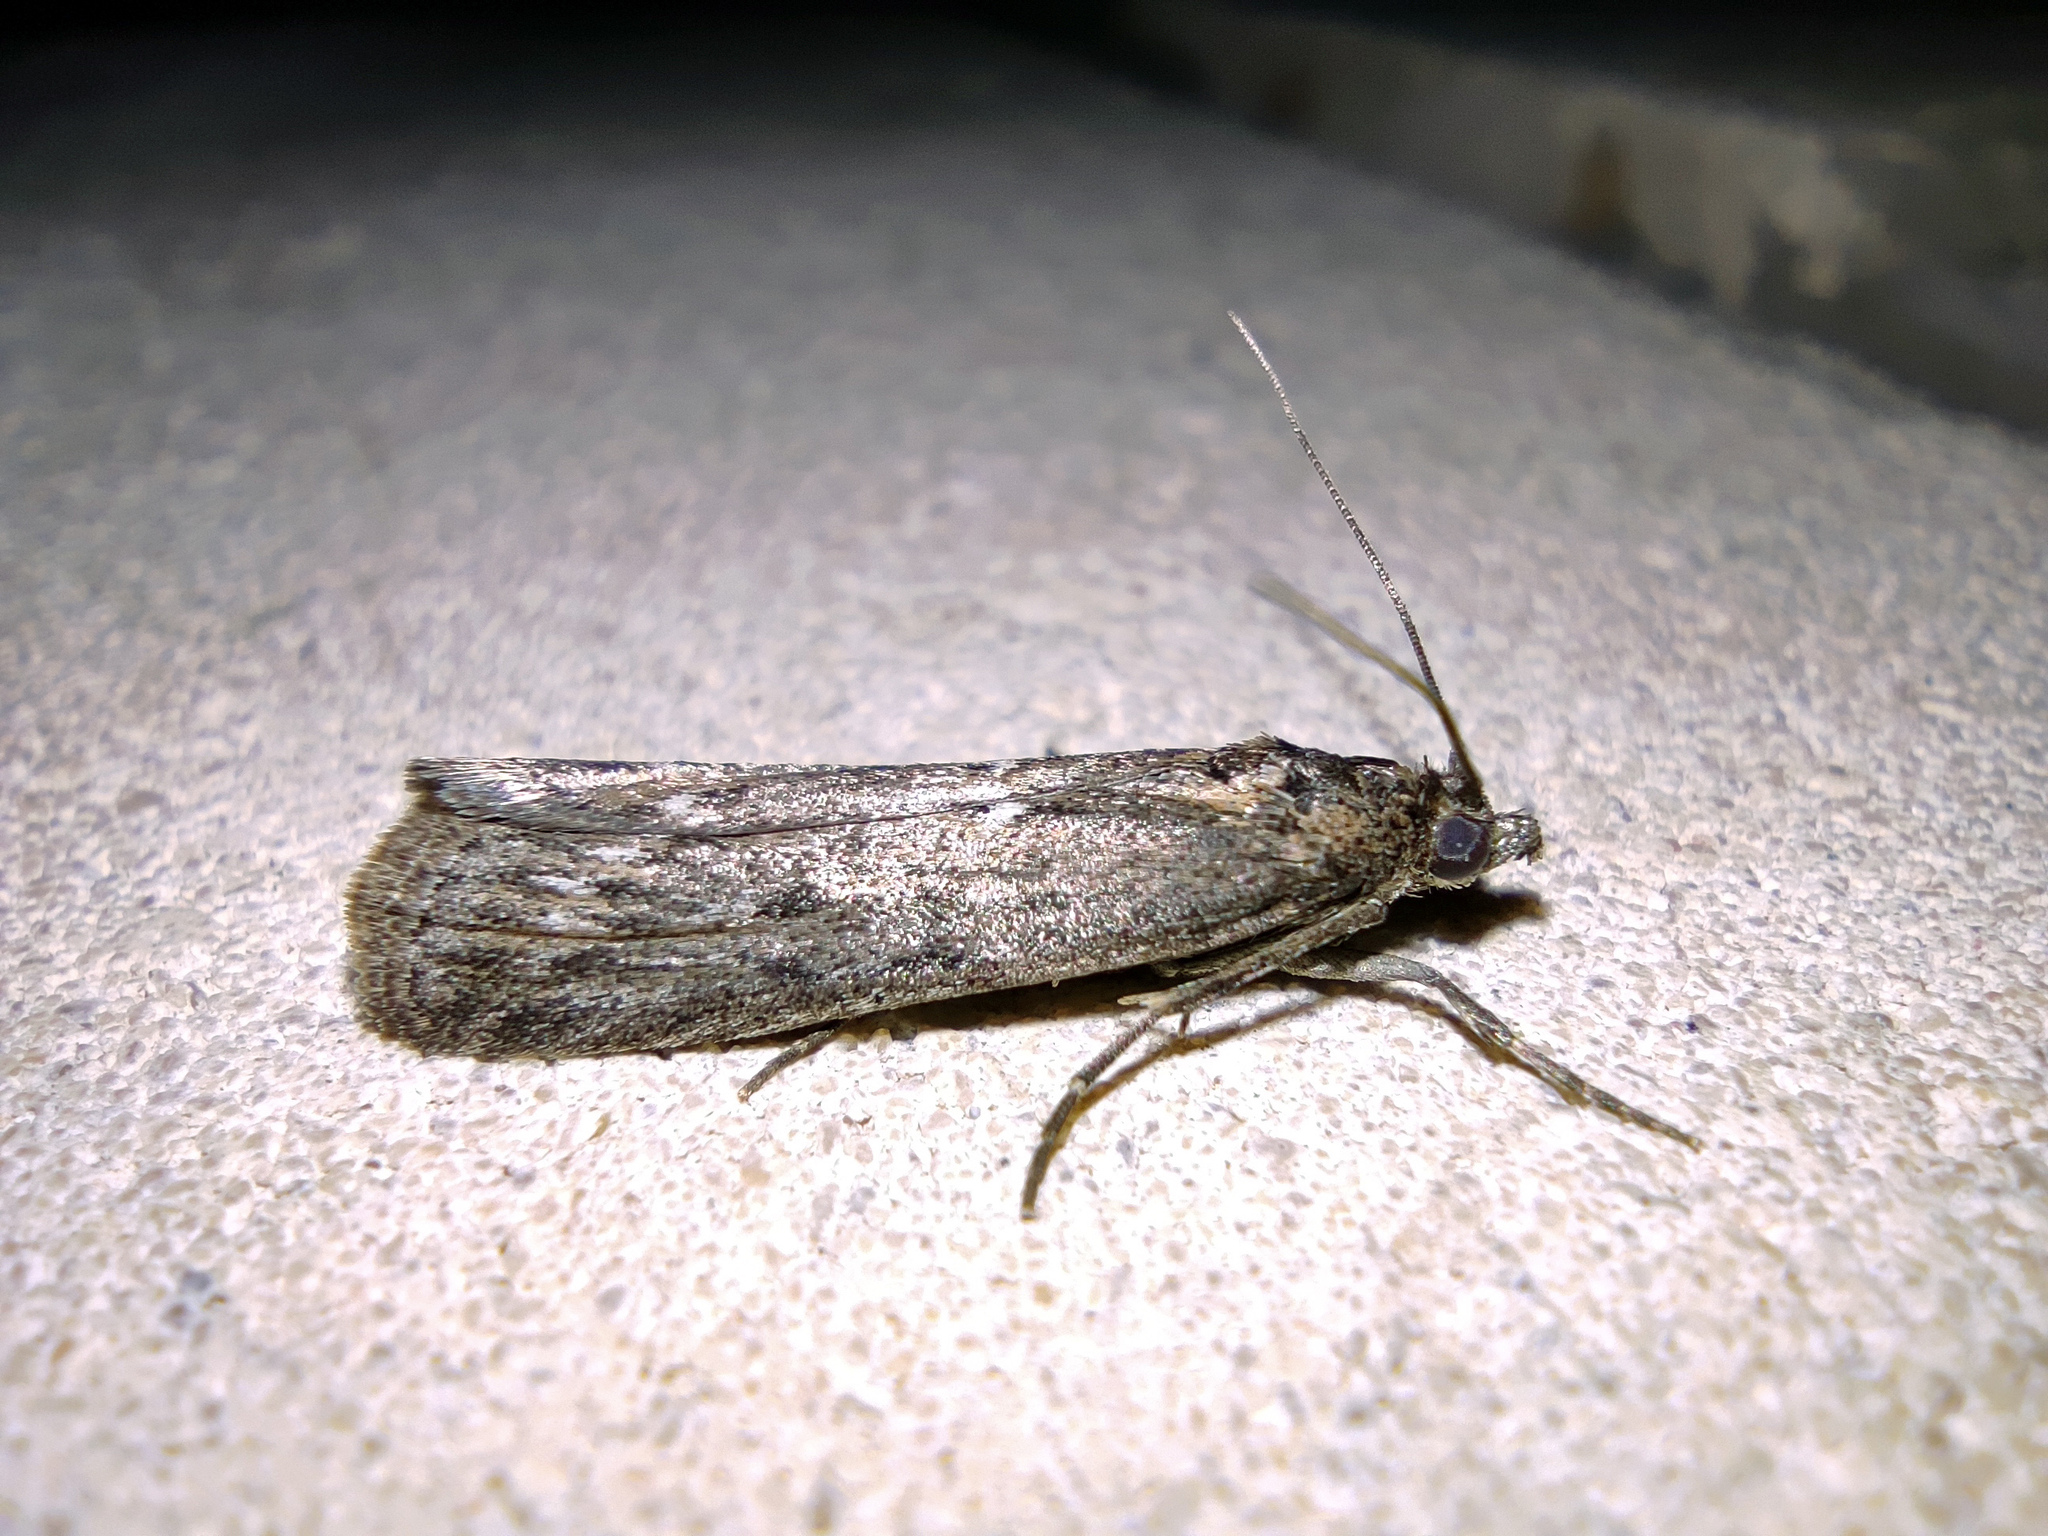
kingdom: Animalia
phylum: Arthropoda
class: Insecta
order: Lepidoptera
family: Pyralidae
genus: Conobathra
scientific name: Conobathra Isauria dilucidella
